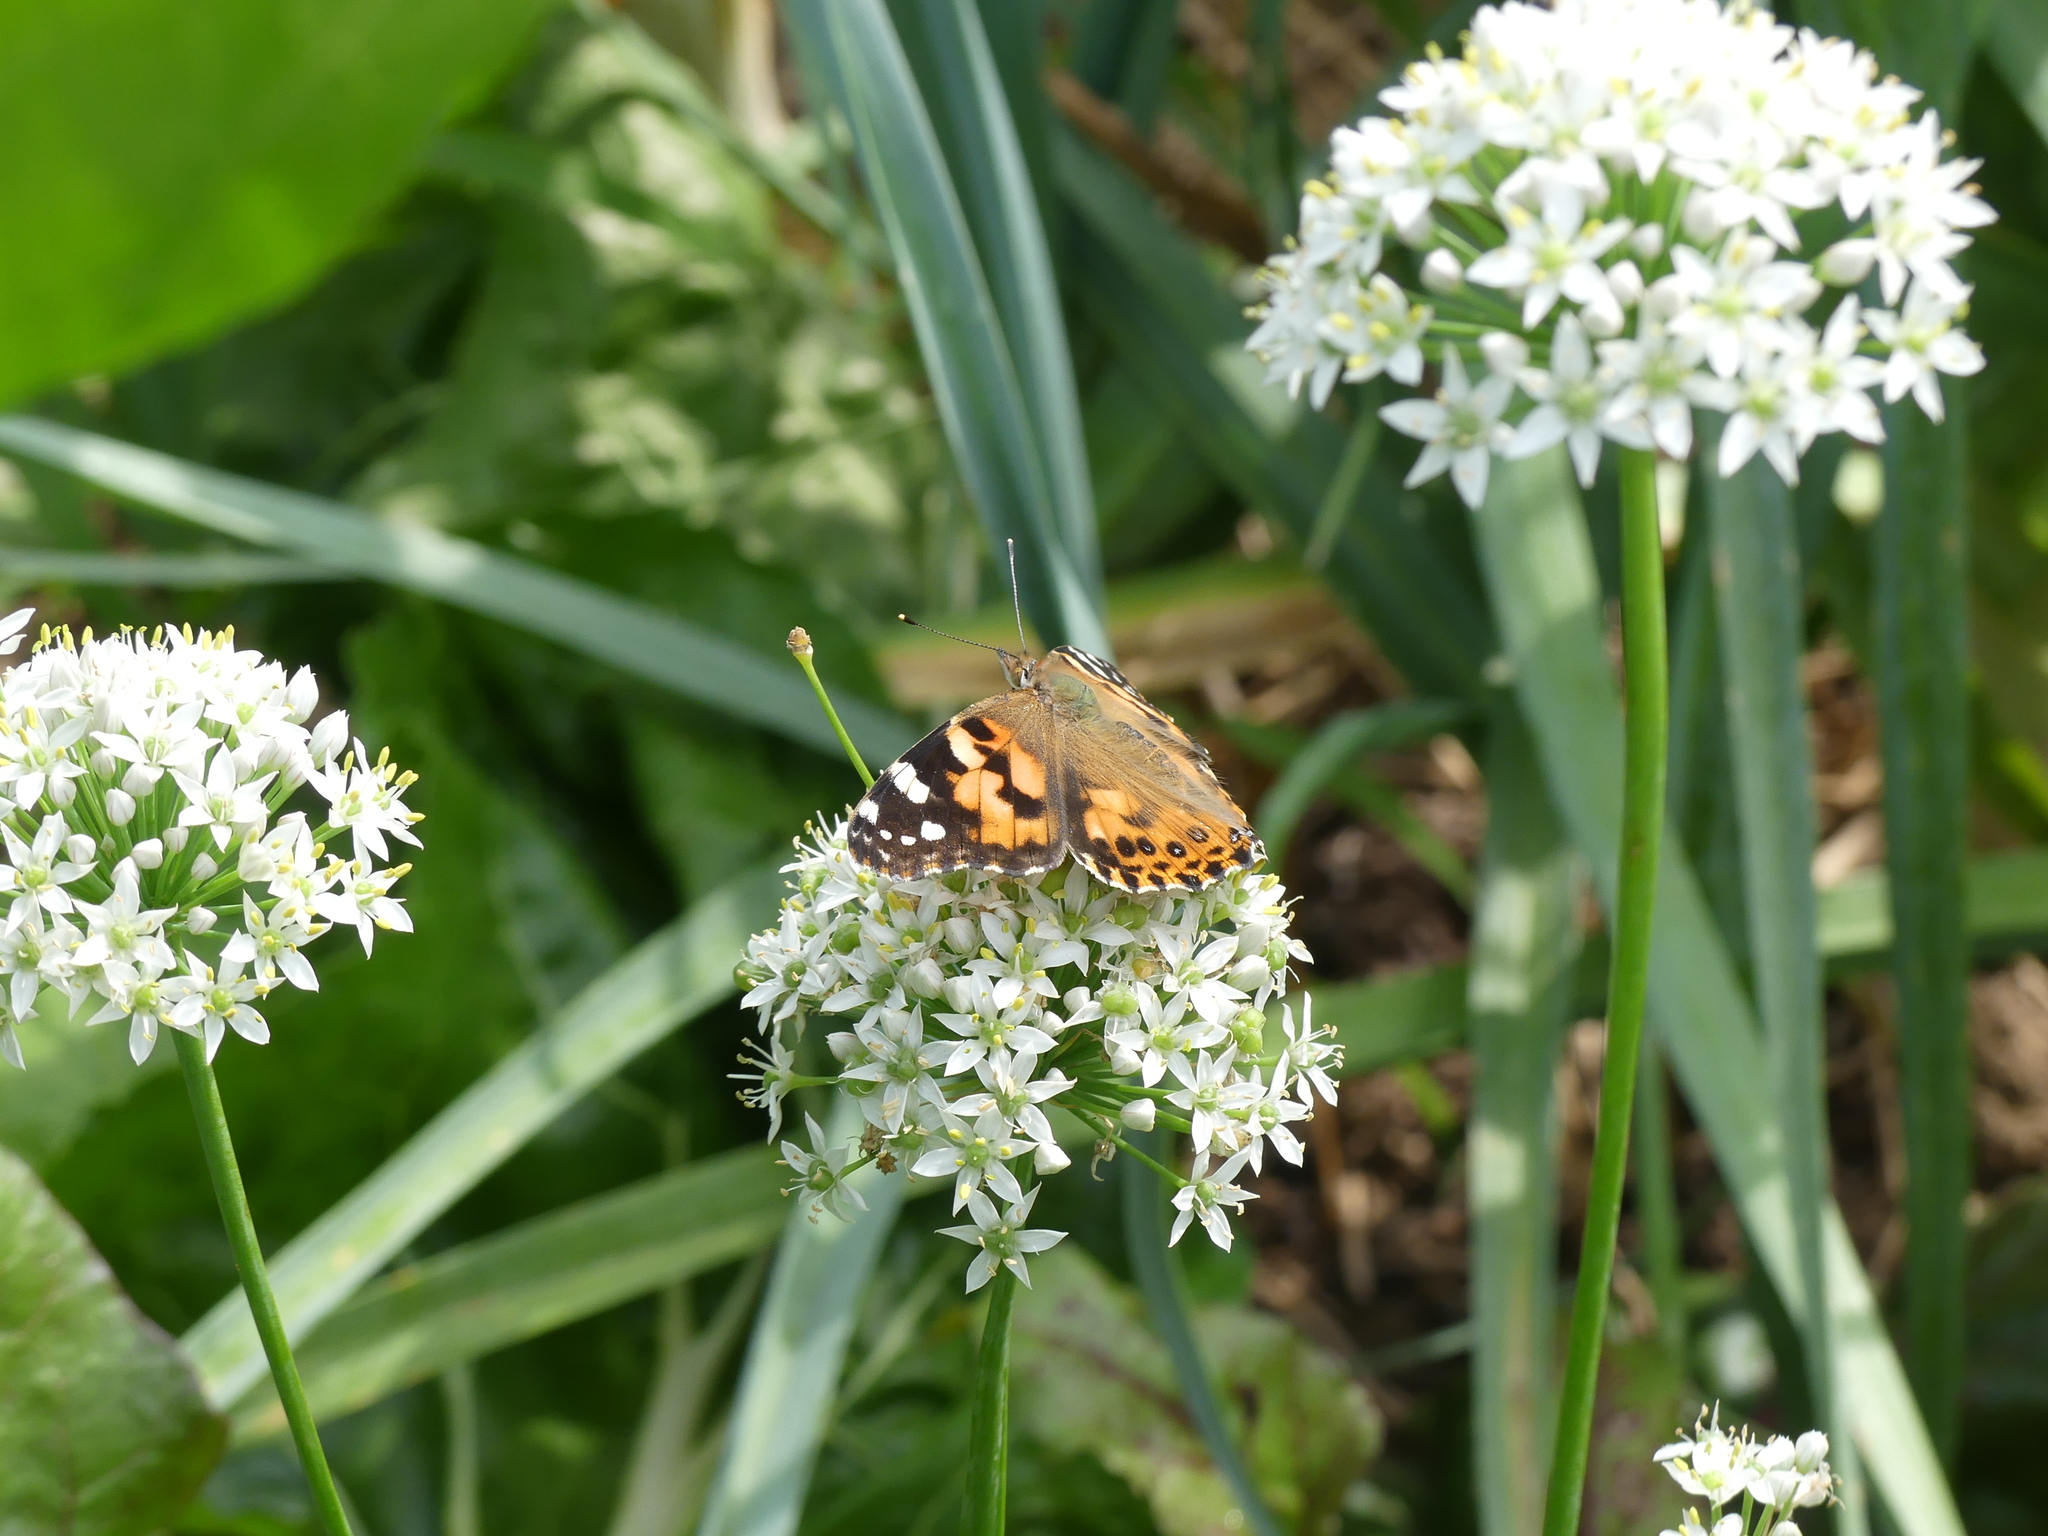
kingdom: Animalia
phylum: Arthropoda
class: Insecta
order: Lepidoptera
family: Nymphalidae
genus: Vanessa
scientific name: Vanessa cardui
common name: Painted lady
